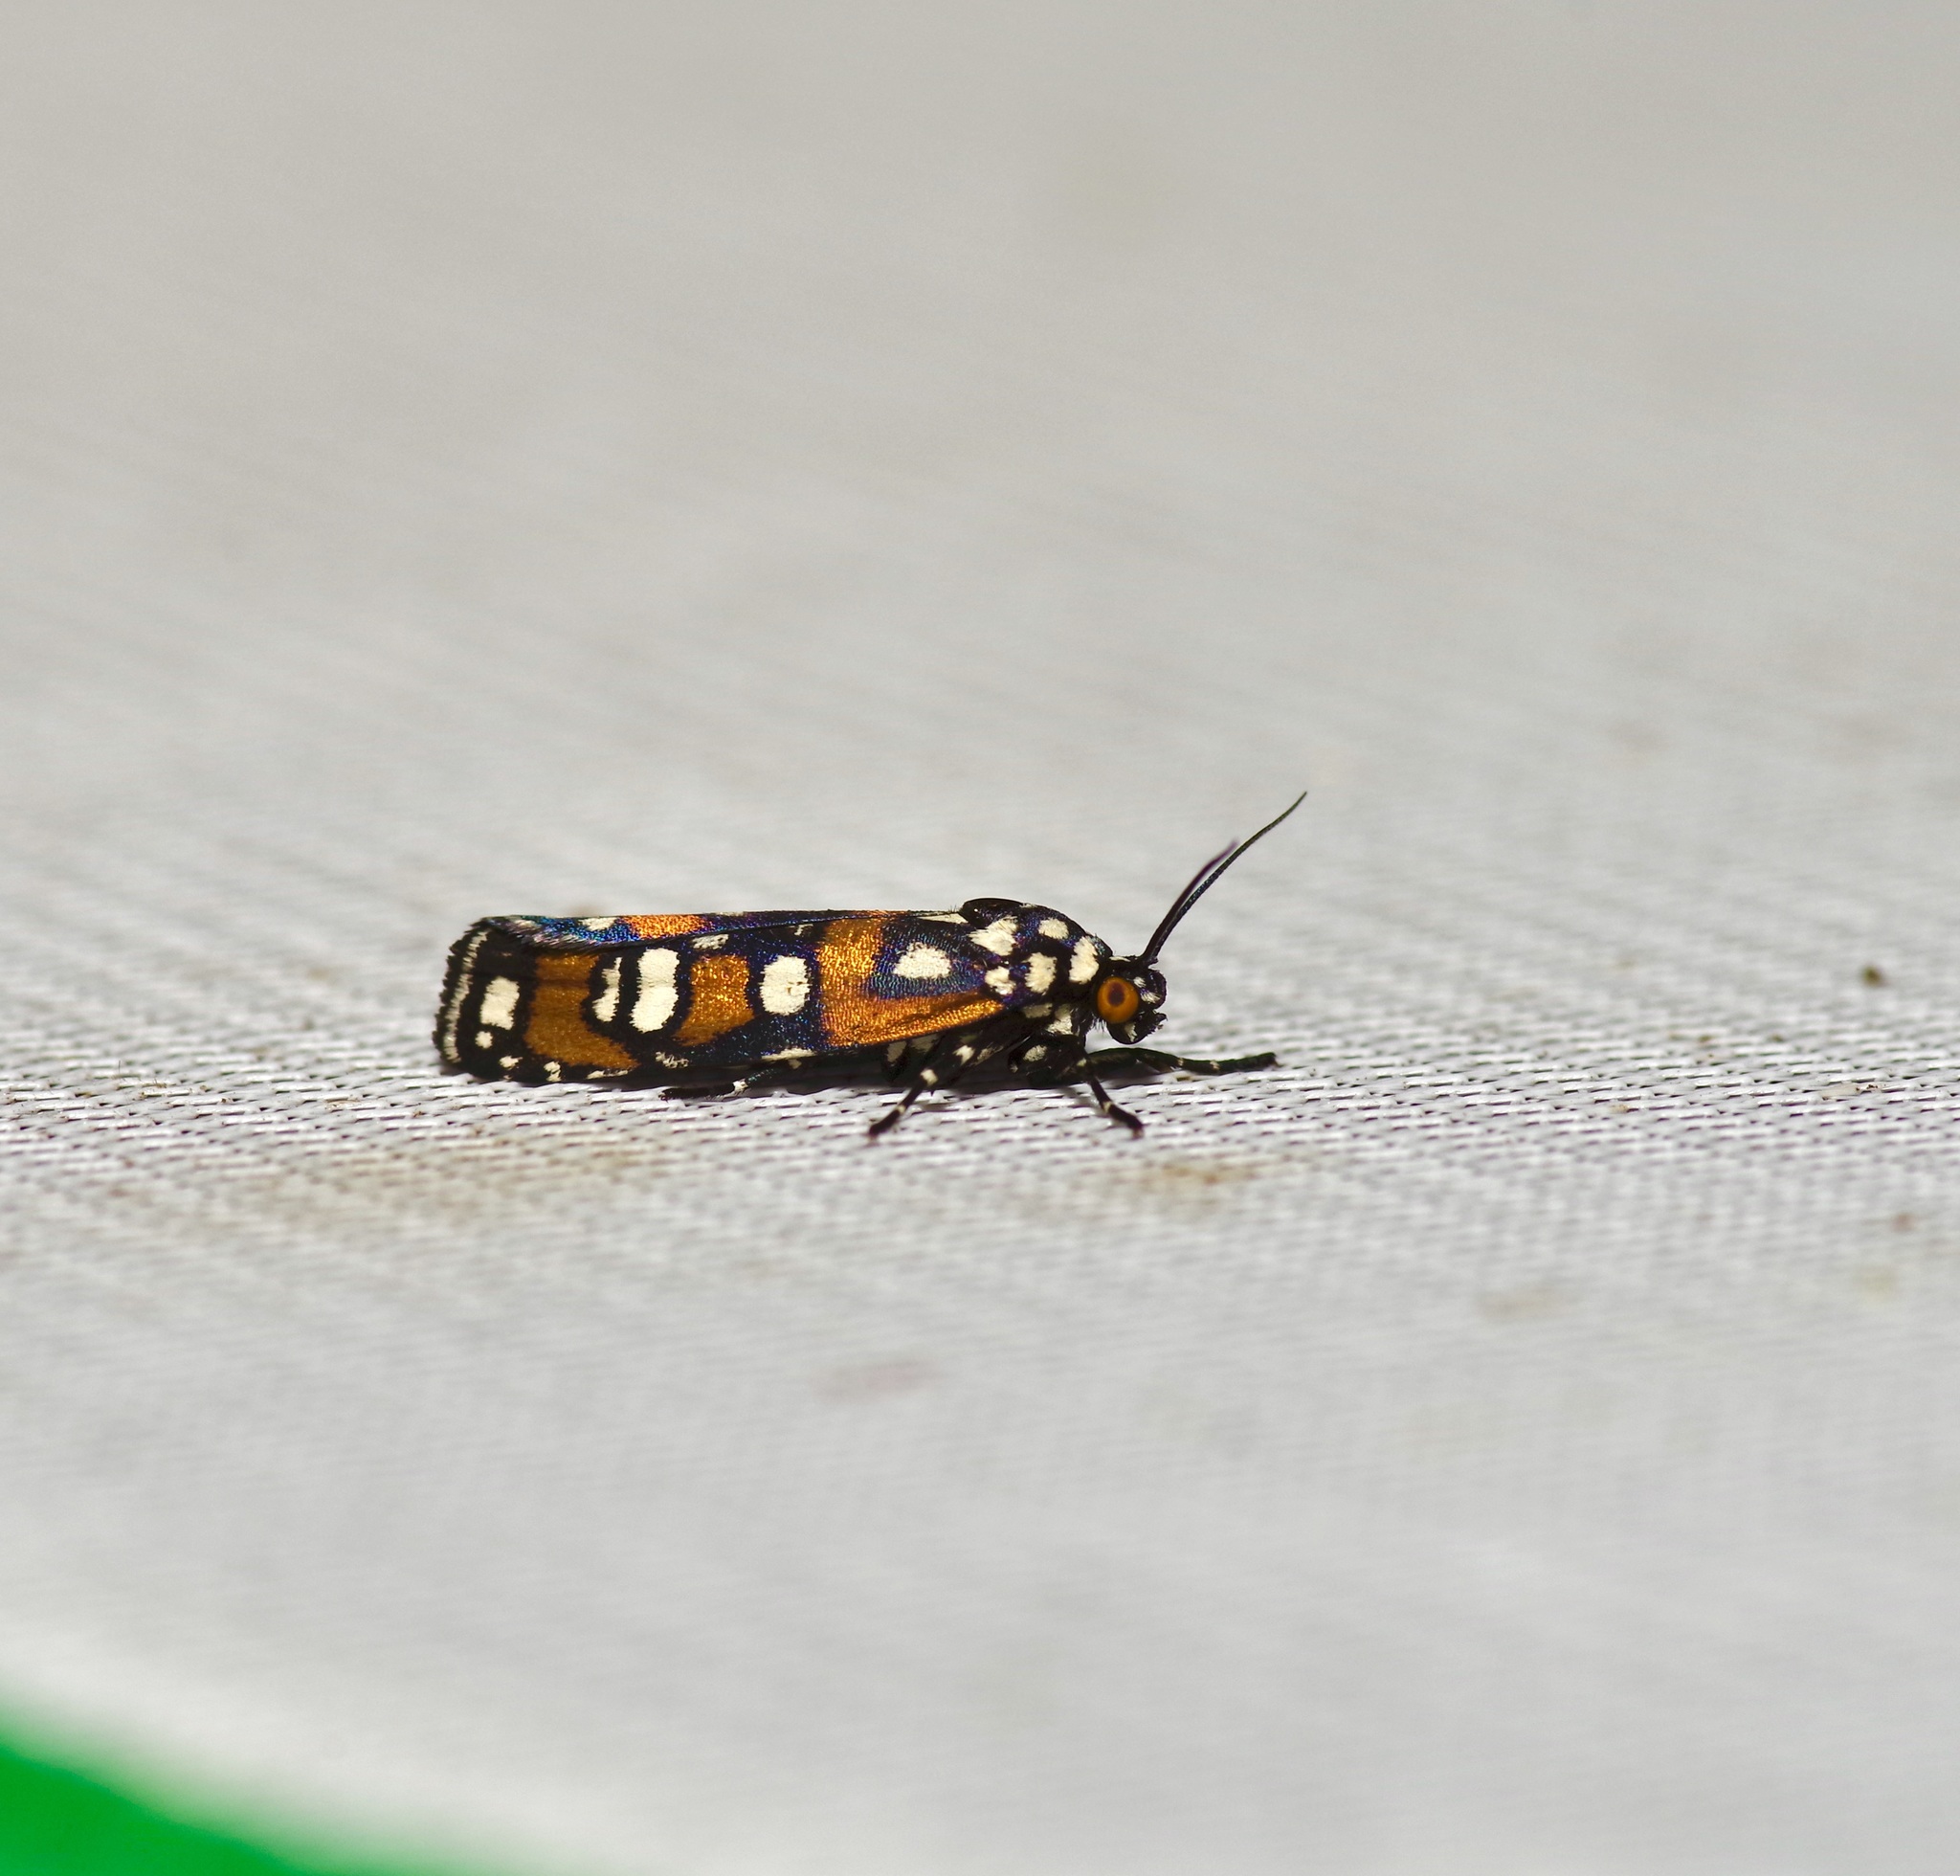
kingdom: Animalia
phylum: Arthropoda
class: Insecta
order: Lepidoptera
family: Noctuidae
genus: Cydosia
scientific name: Cydosia aurivitta
